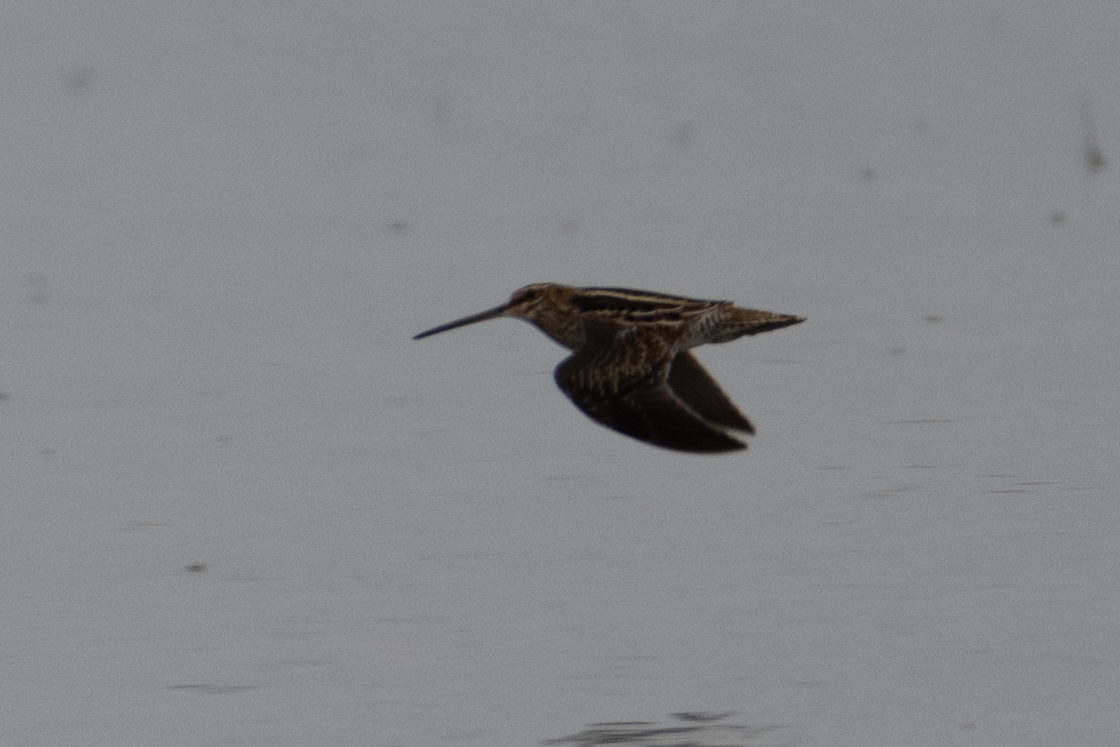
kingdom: Animalia
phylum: Chordata
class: Aves
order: Charadriiformes
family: Scolopacidae
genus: Gallinago
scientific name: Gallinago delicata
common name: Wilson's snipe
